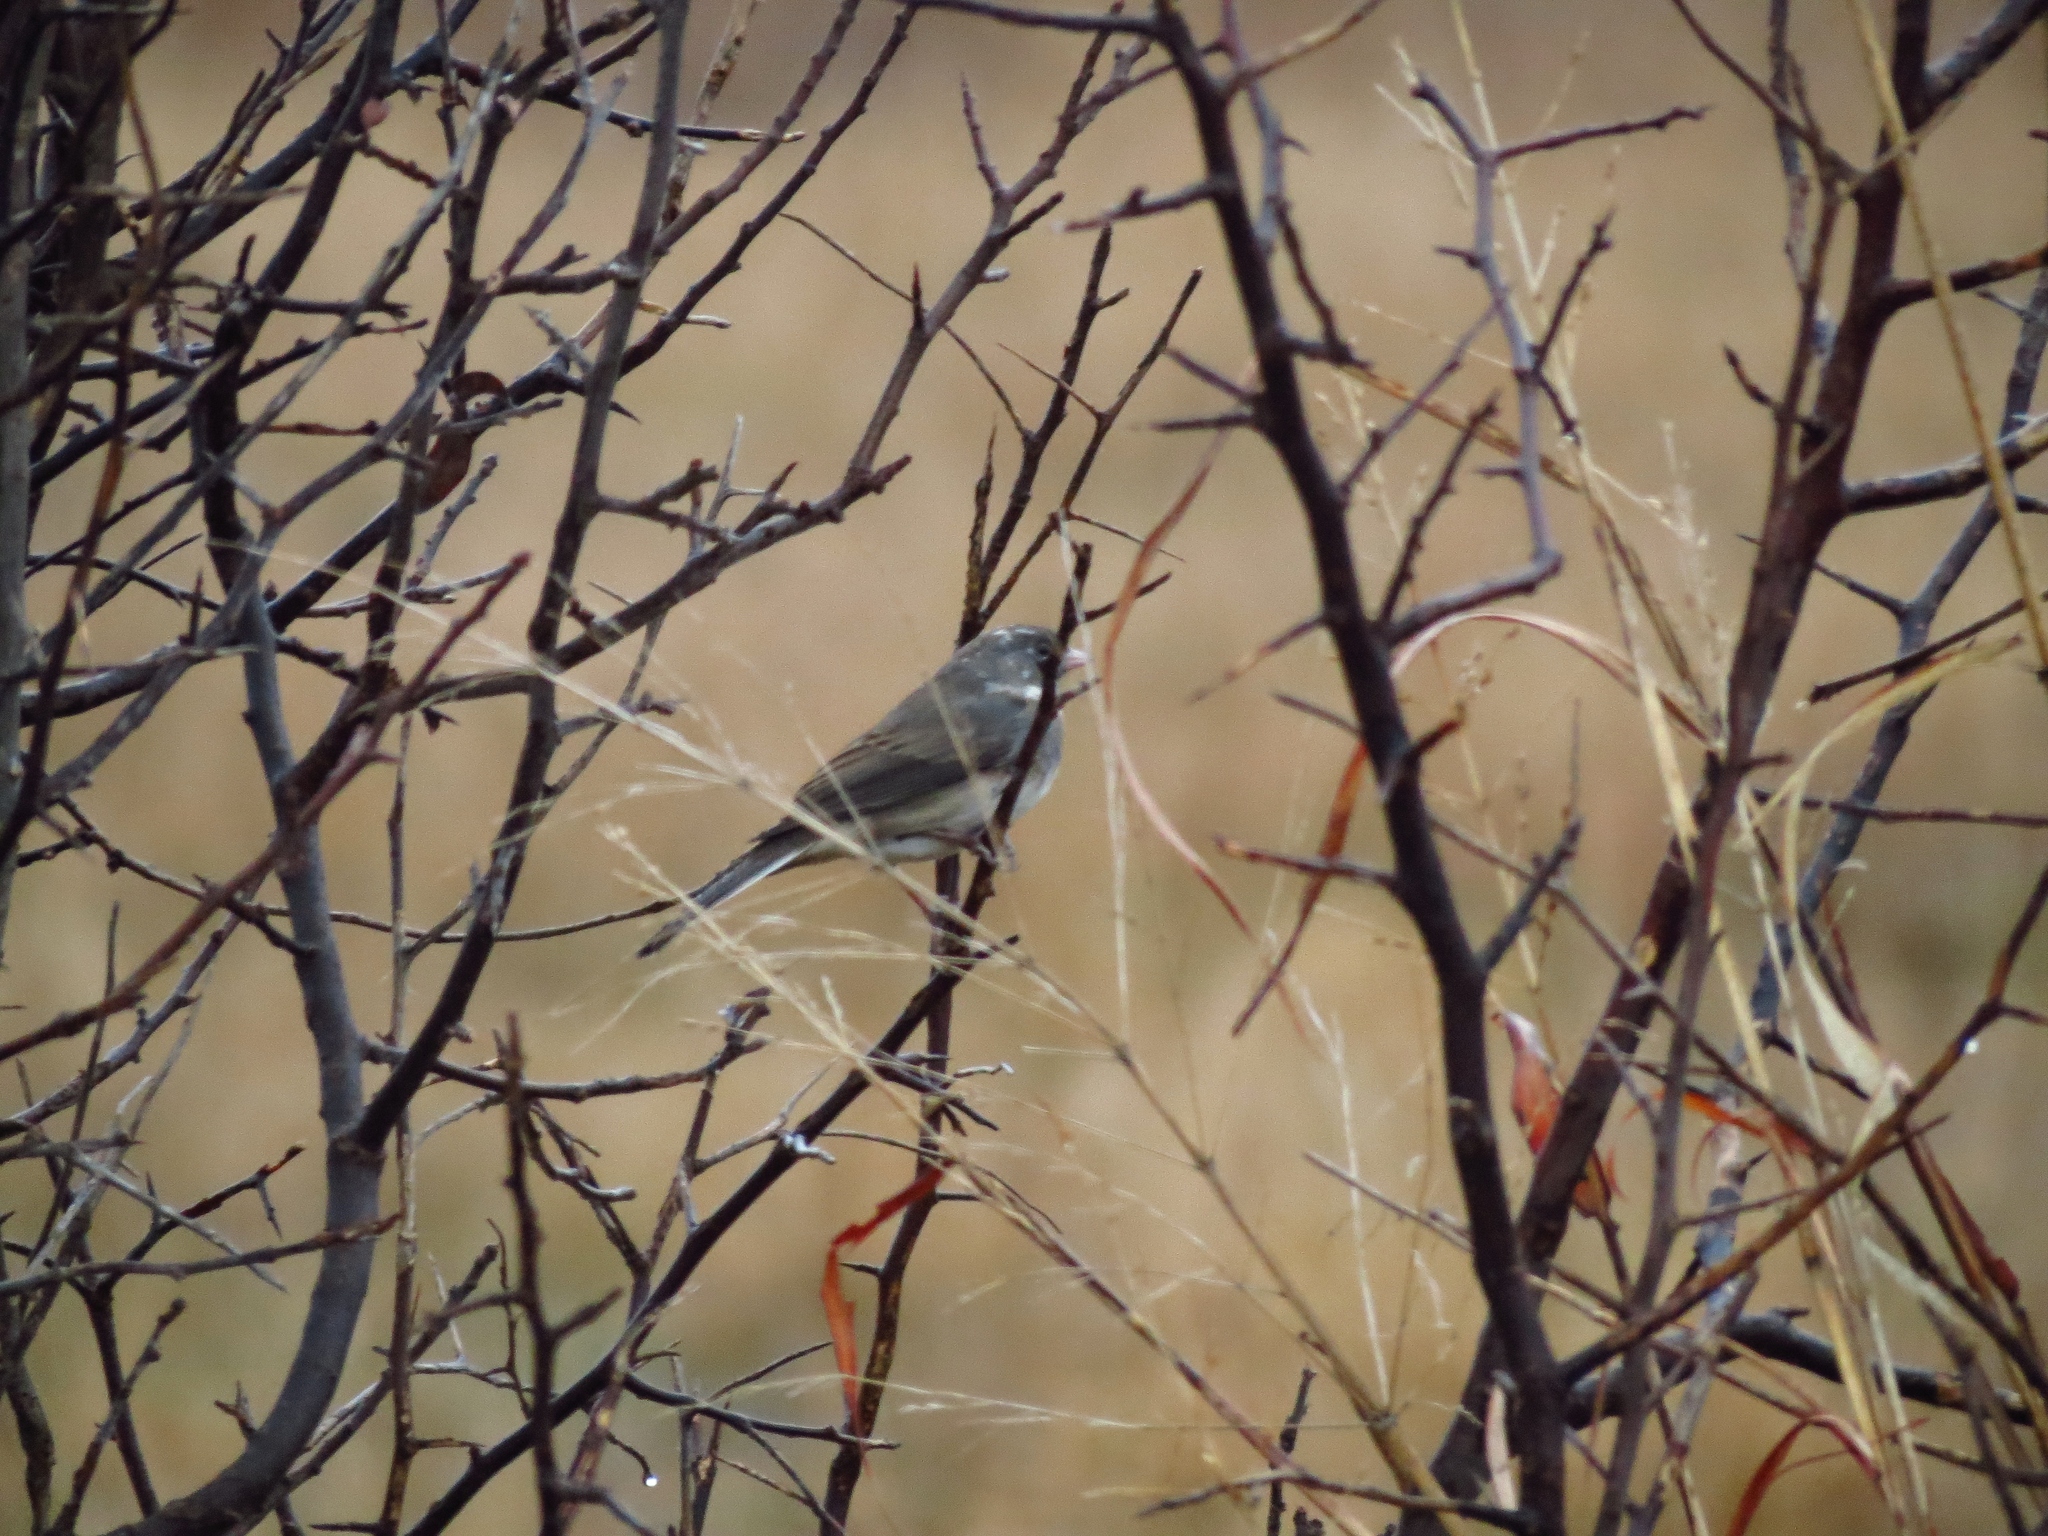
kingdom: Animalia
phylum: Chordata
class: Aves
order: Passeriformes
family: Passerellidae
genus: Junco
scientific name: Junco hyemalis
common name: Dark-eyed junco
